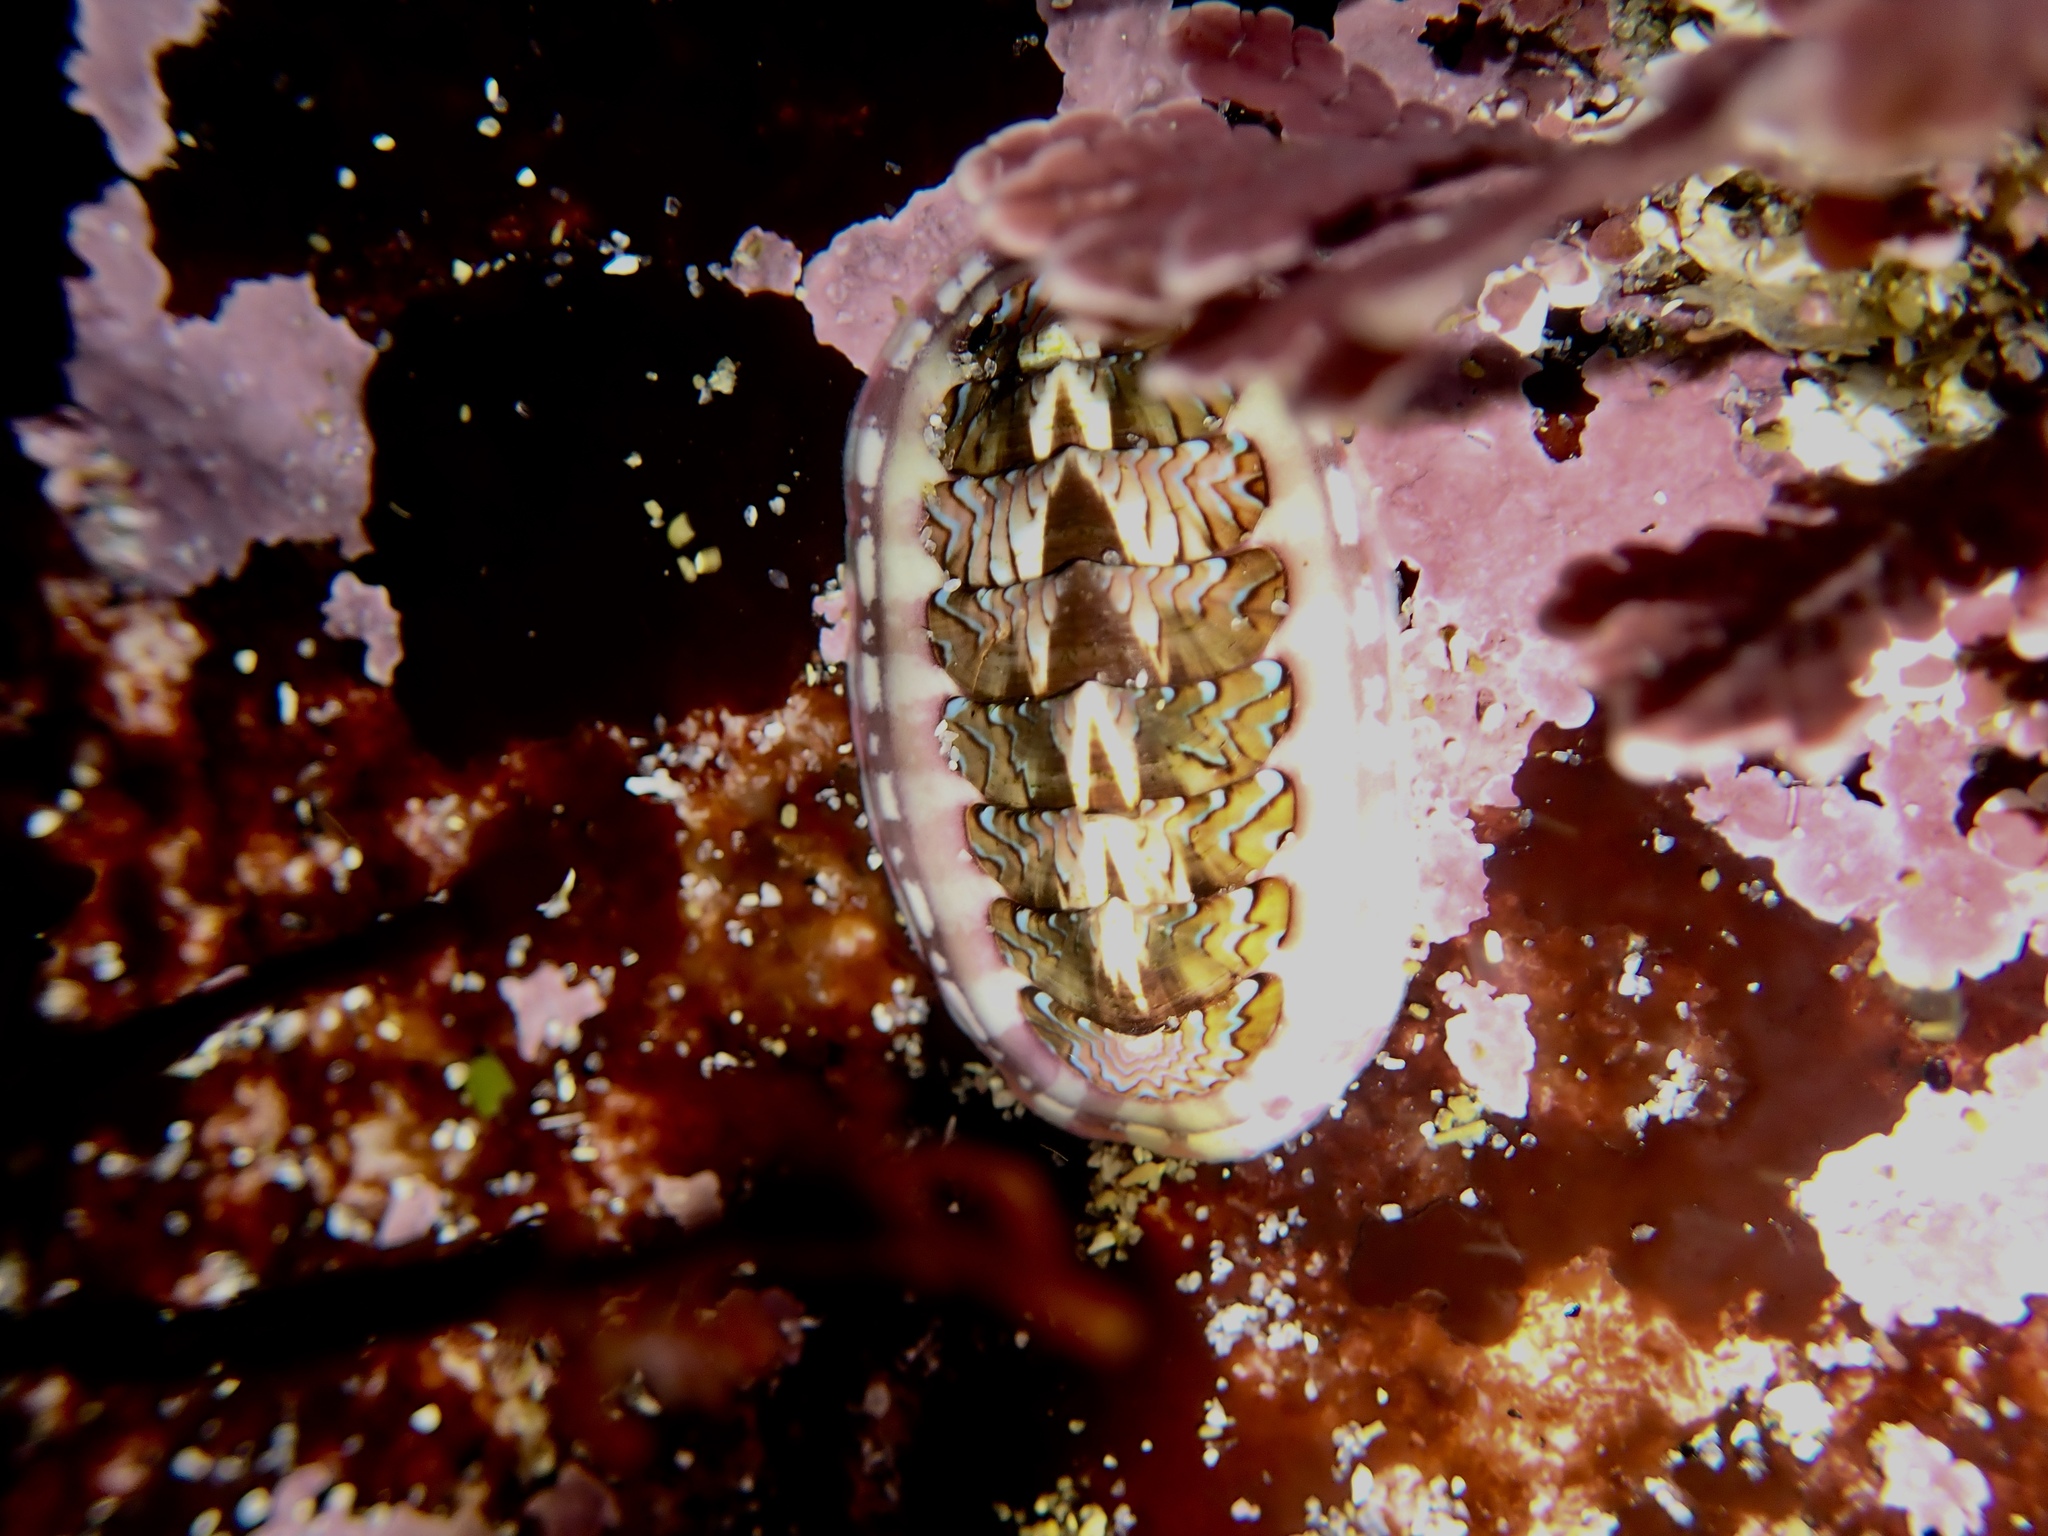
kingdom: Animalia
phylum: Mollusca
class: Polyplacophora
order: Chitonida
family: Tonicellidae
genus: Tonicella
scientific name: Tonicella lokii
